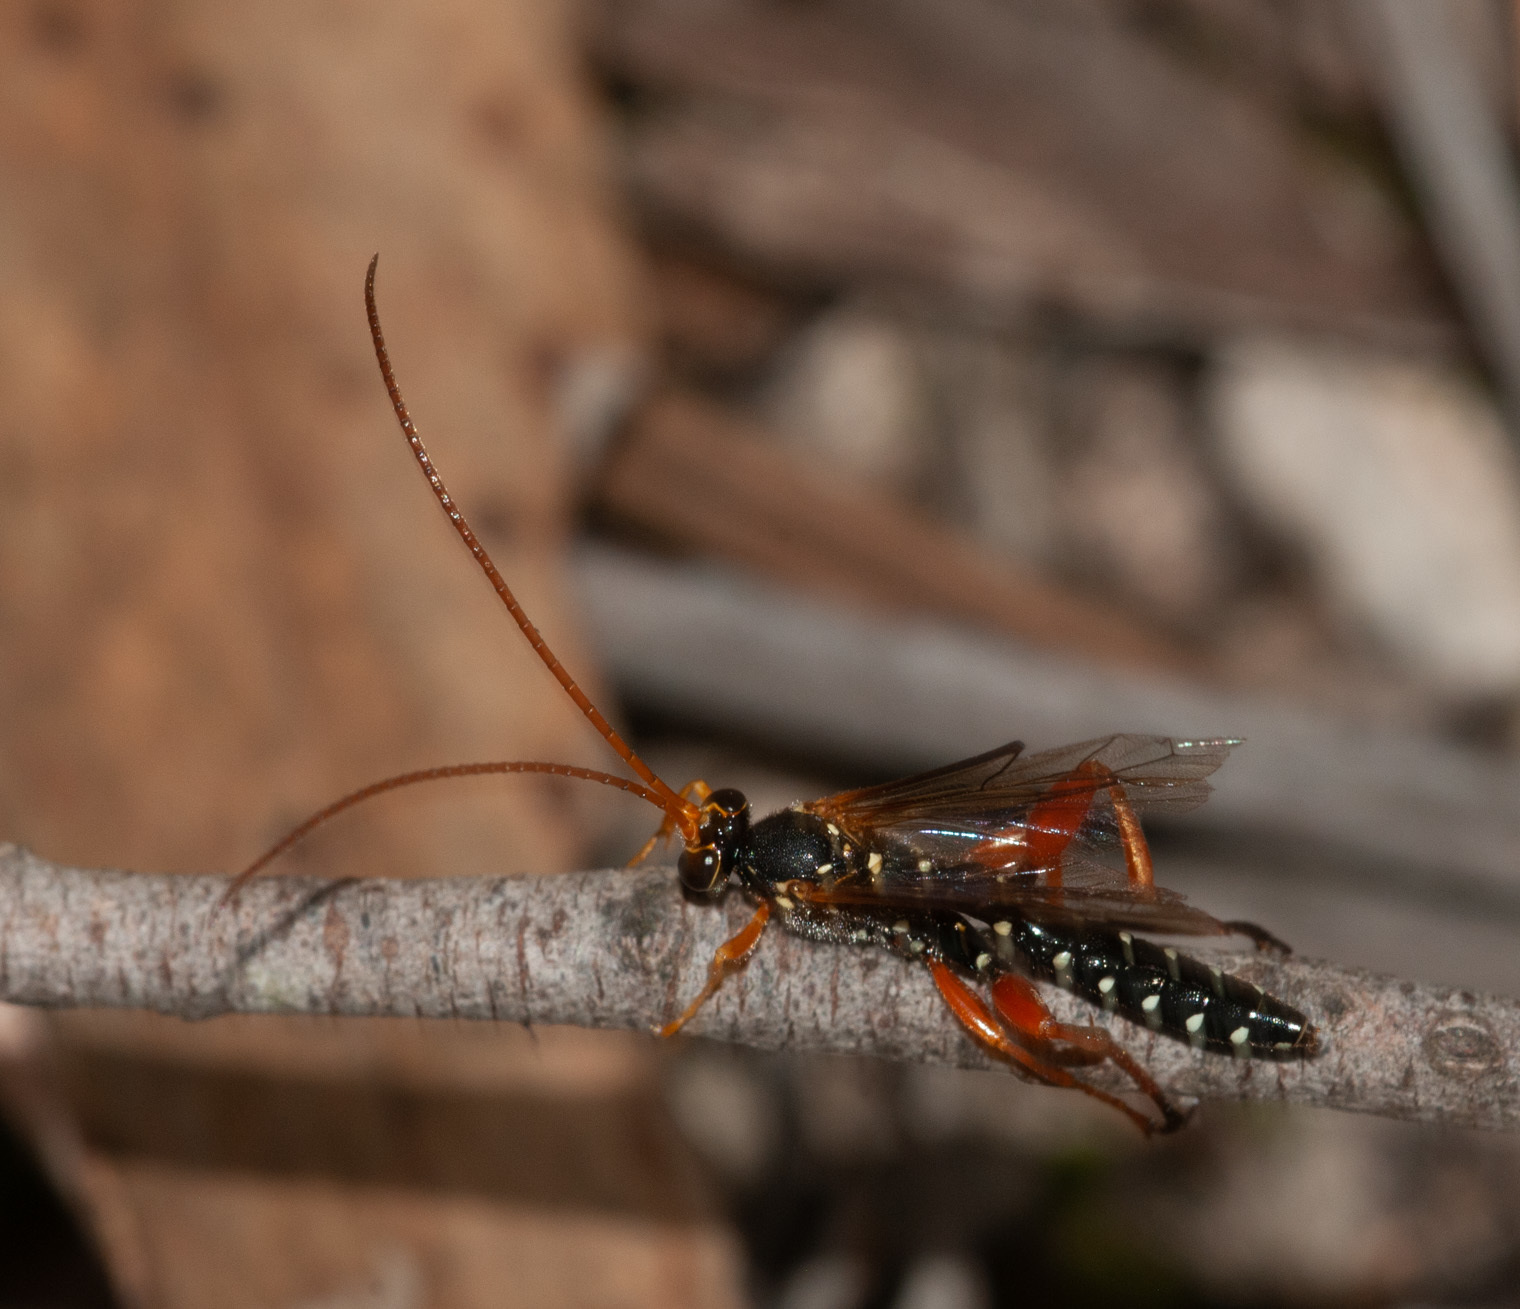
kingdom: Animalia
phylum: Arthropoda
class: Insecta
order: Hymenoptera
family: Ichneumonidae
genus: Echthromorpha
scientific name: Echthromorpha intricatoria
